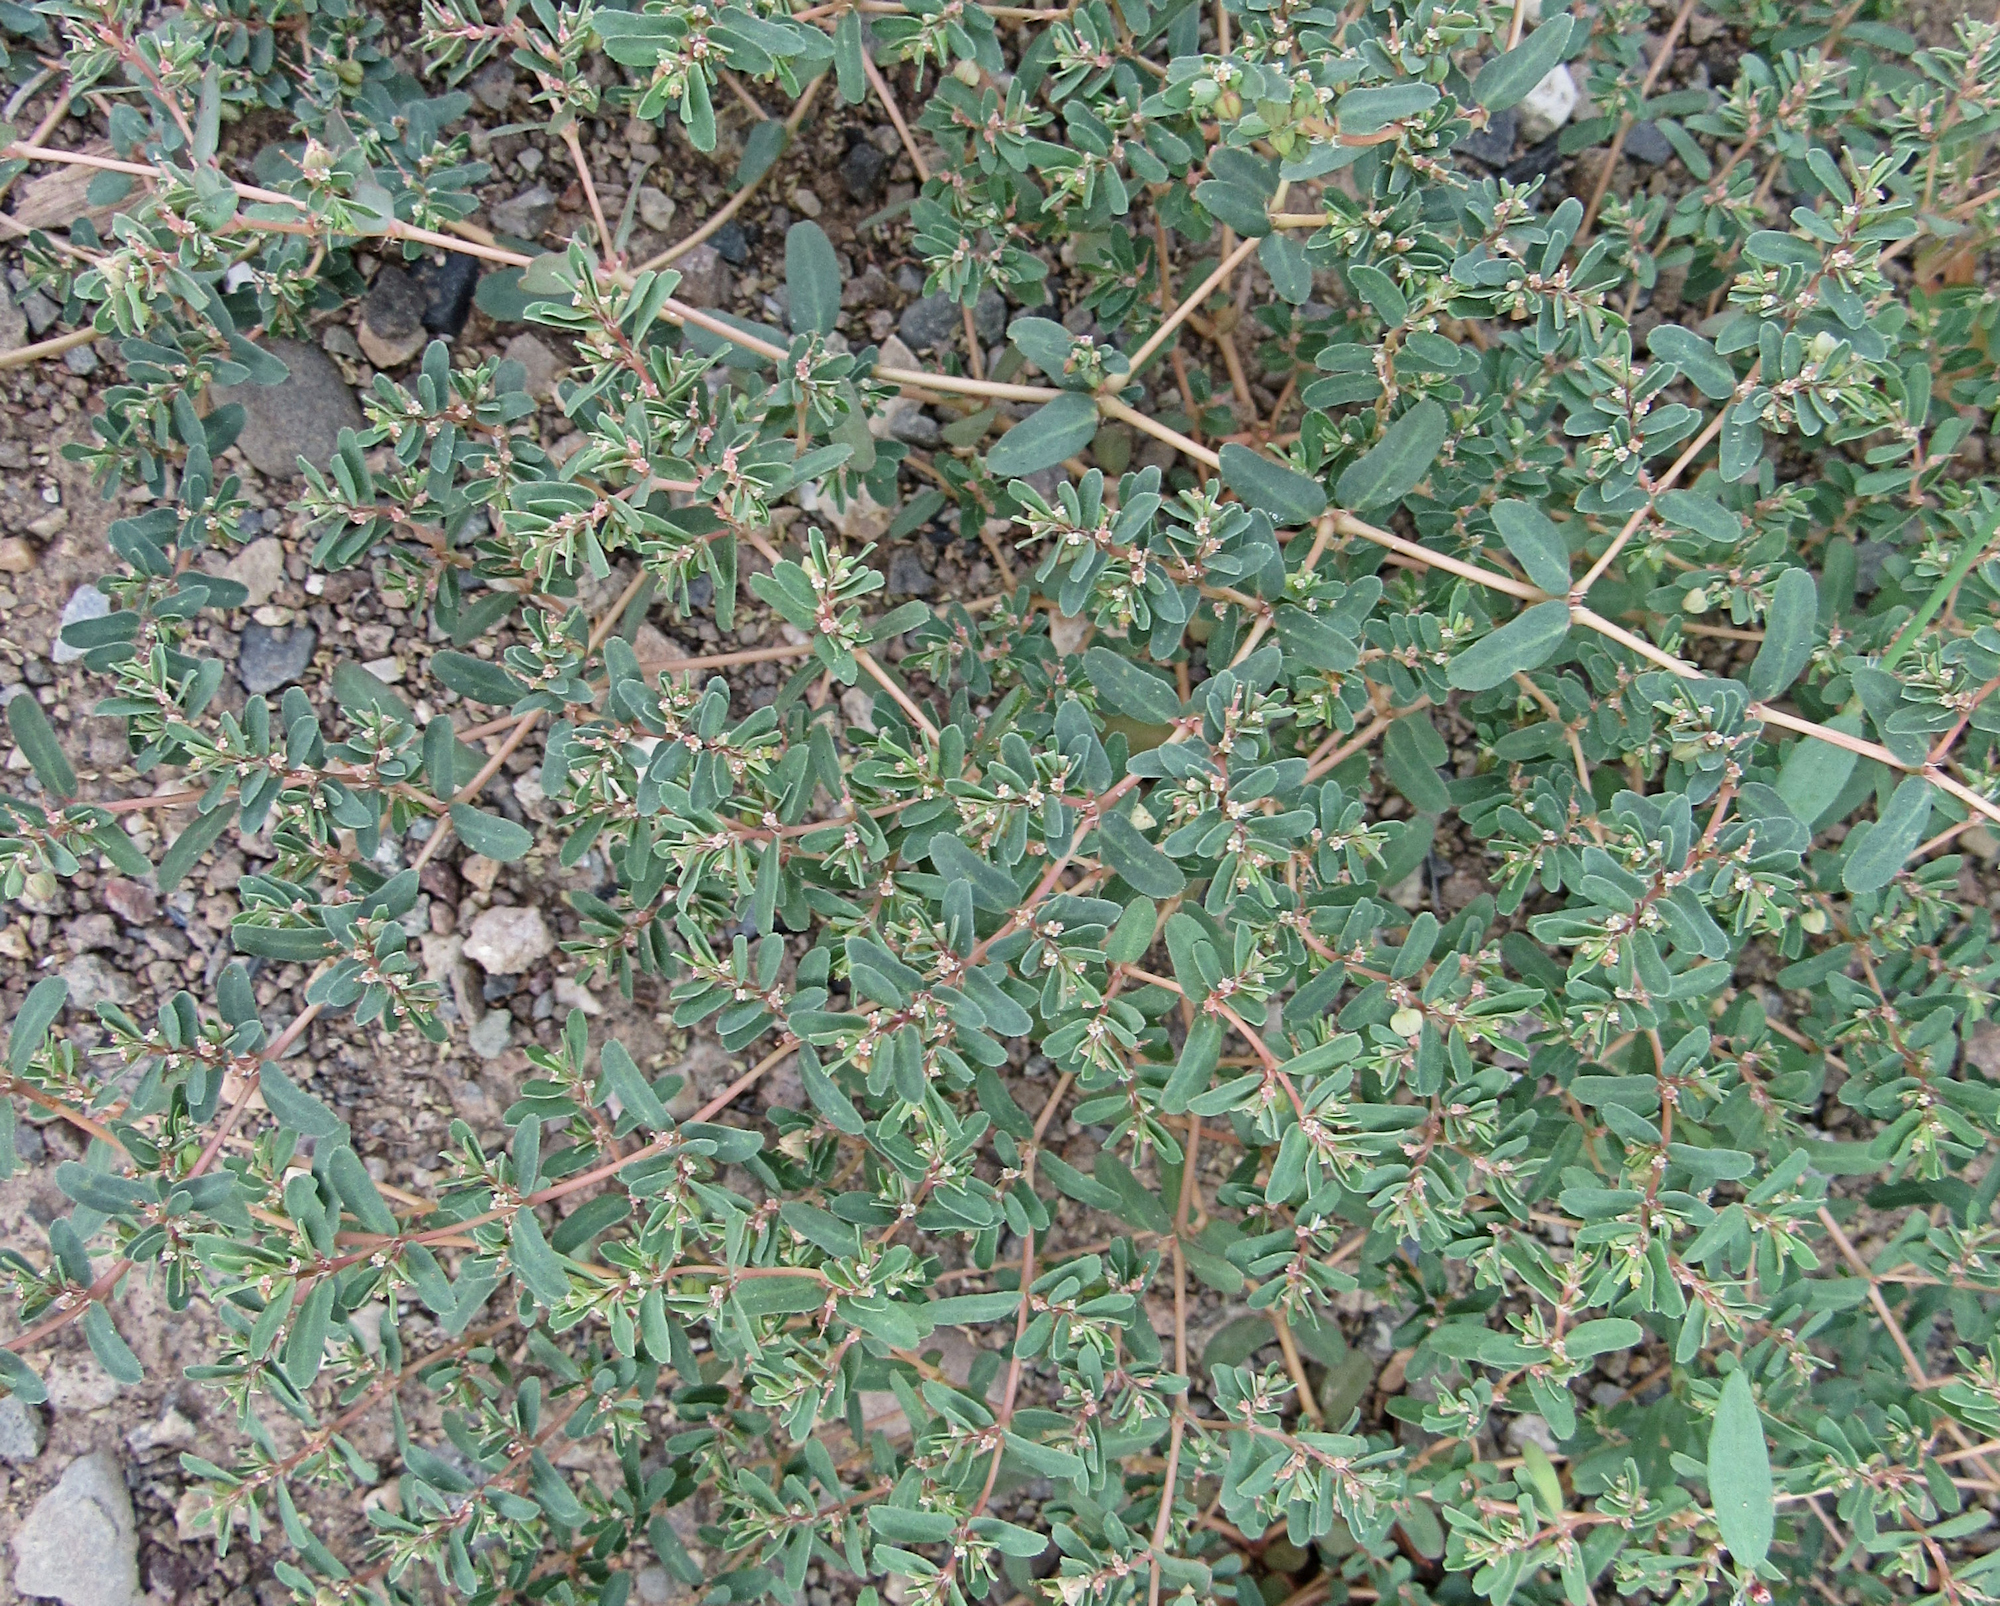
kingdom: Plantae
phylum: Tracheophyta
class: Magnoliopsida
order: Malpighiales
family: Euphorbiaceae
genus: Euphorbia
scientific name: Euphorbia glyptosperma
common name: Corrugate-seeded spurge
